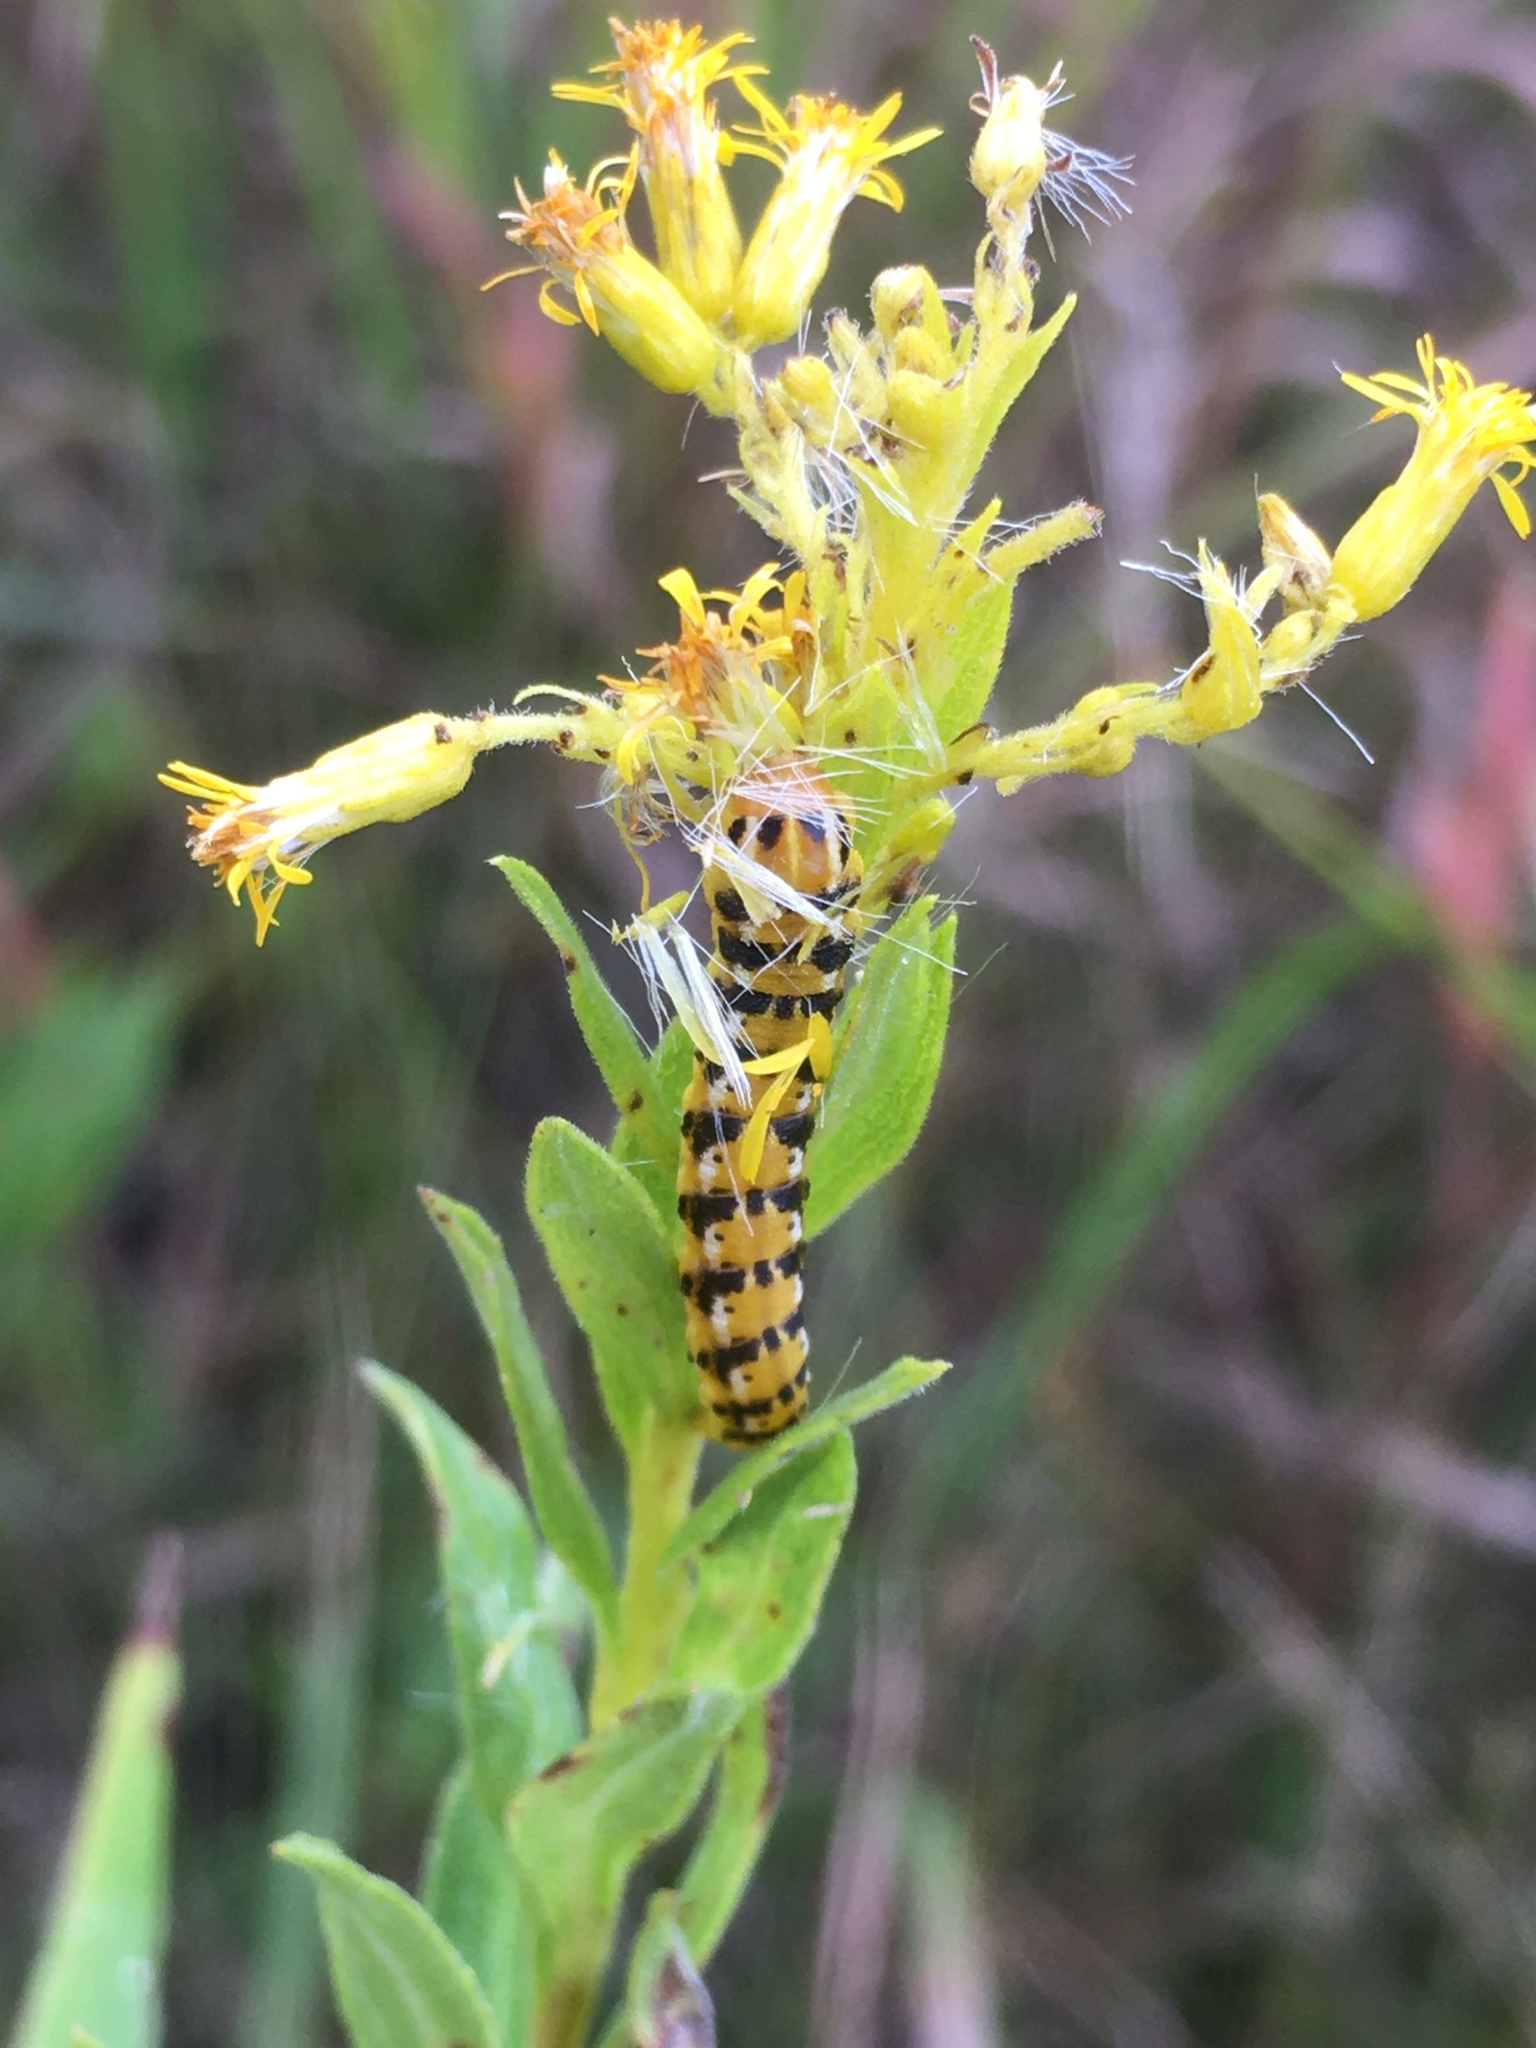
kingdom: Animalia
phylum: Arthropoda
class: Insecta
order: Lepidoptera
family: Noctuidae
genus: Schinia
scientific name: Schinia nundina
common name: Goldenrod flower moth
